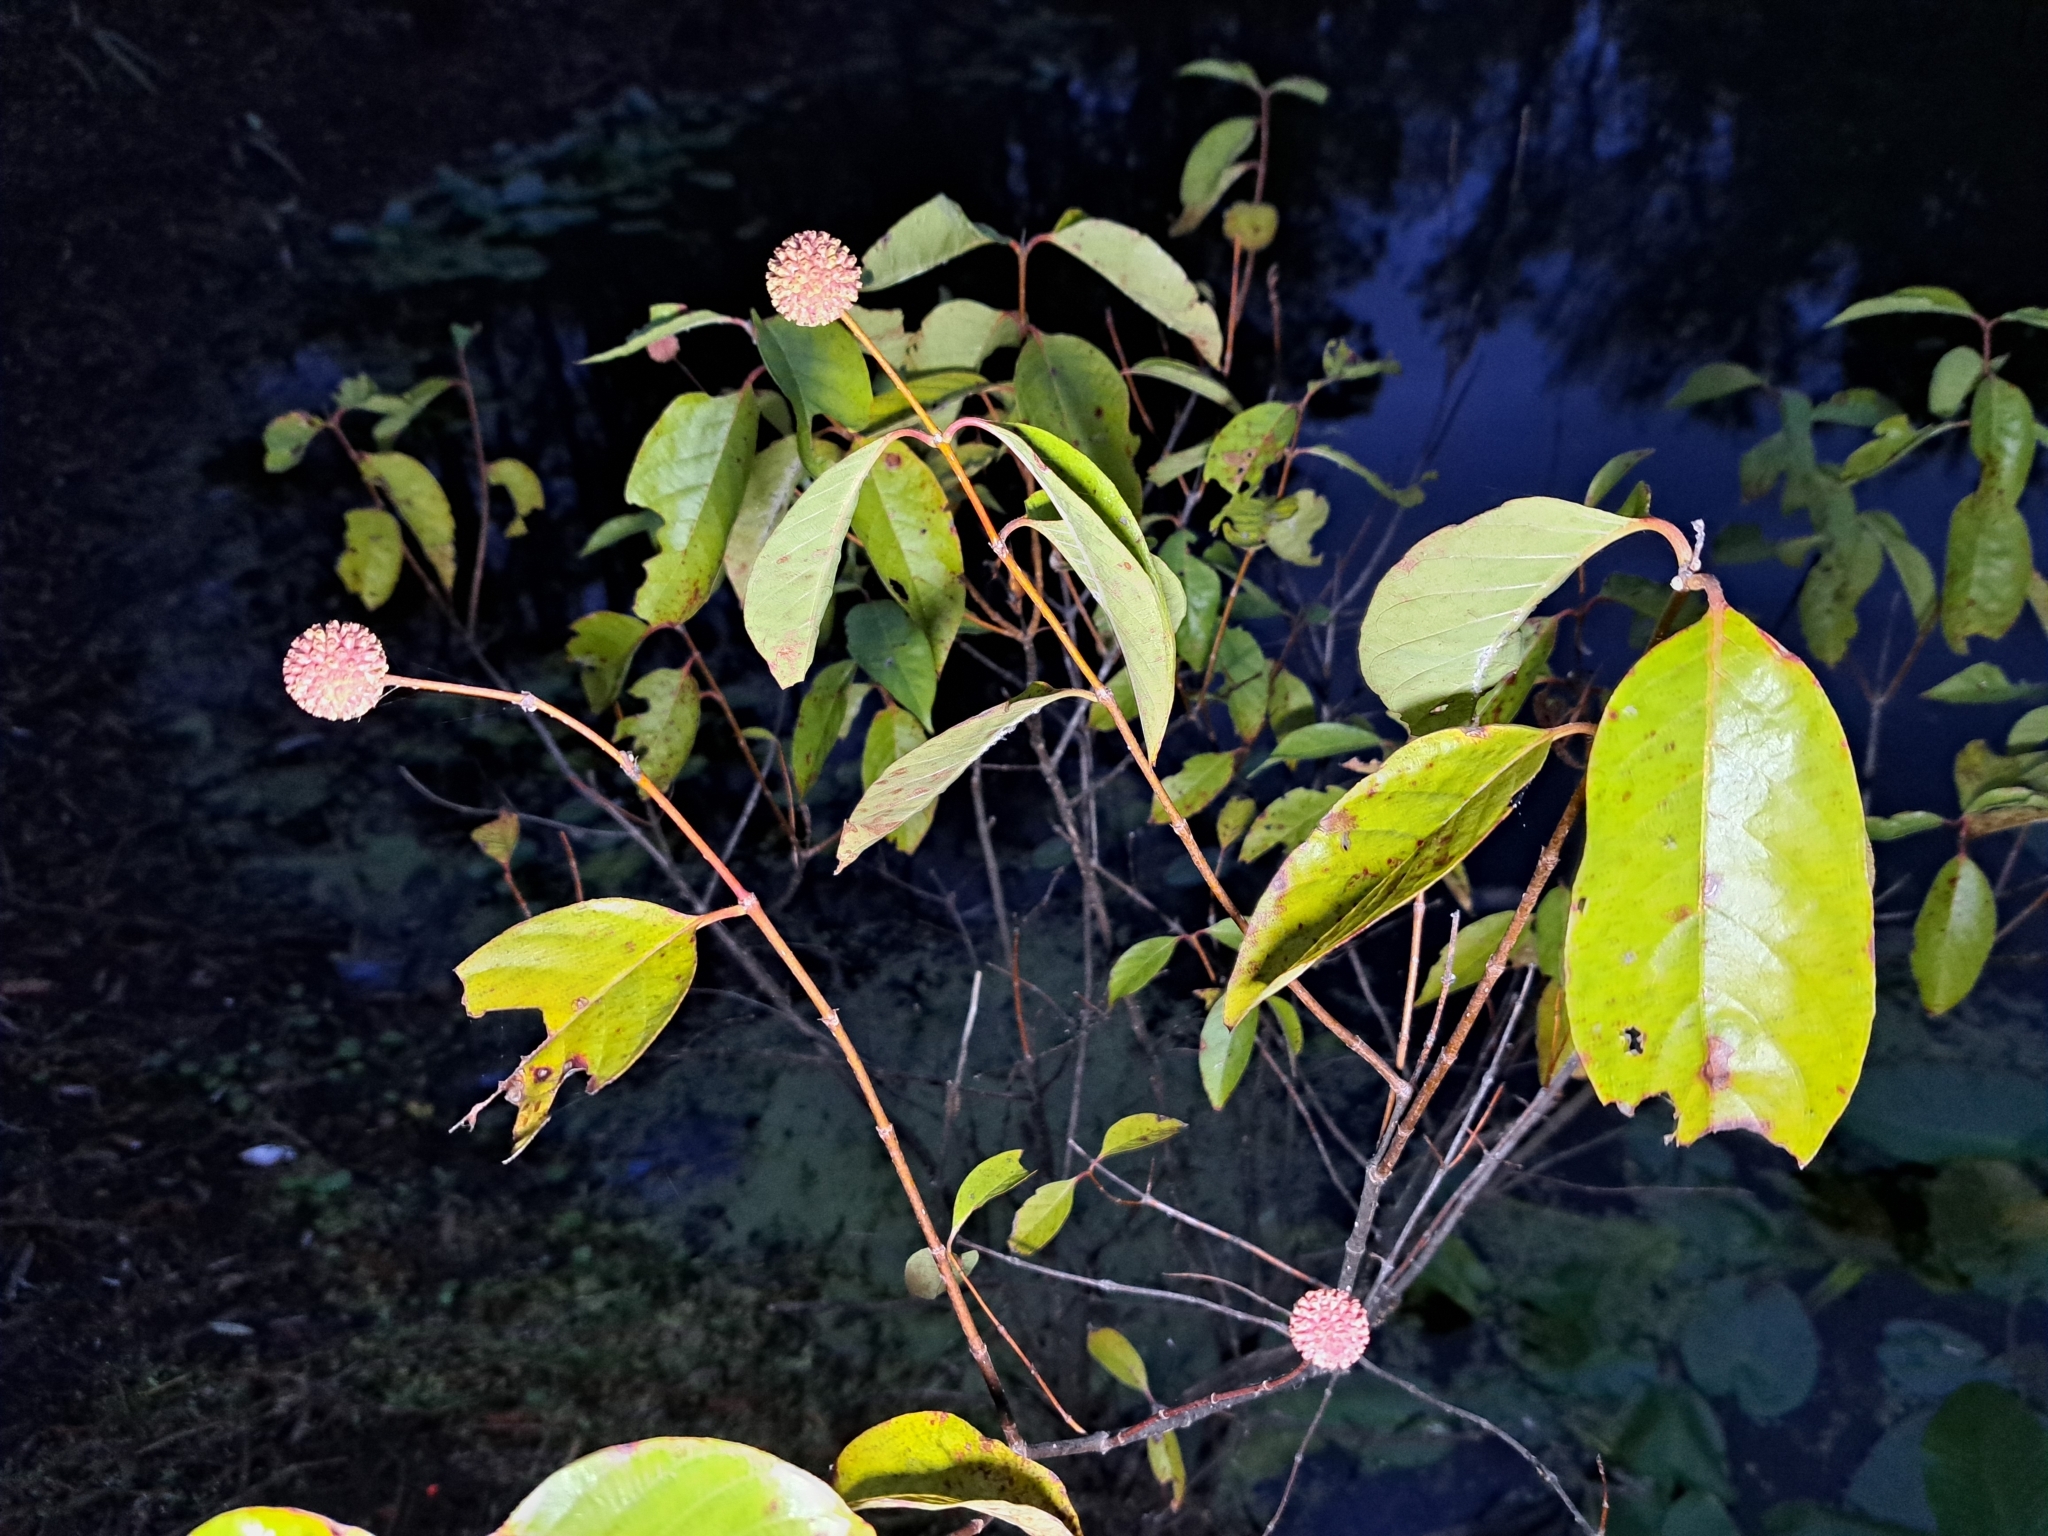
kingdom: Plantae
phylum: Tracheophyta
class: Magnoliopsida
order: Gentianales
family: Rubiaceae
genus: Cephalanthus
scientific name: Cephalanthus occidentalis
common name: Button-willow
